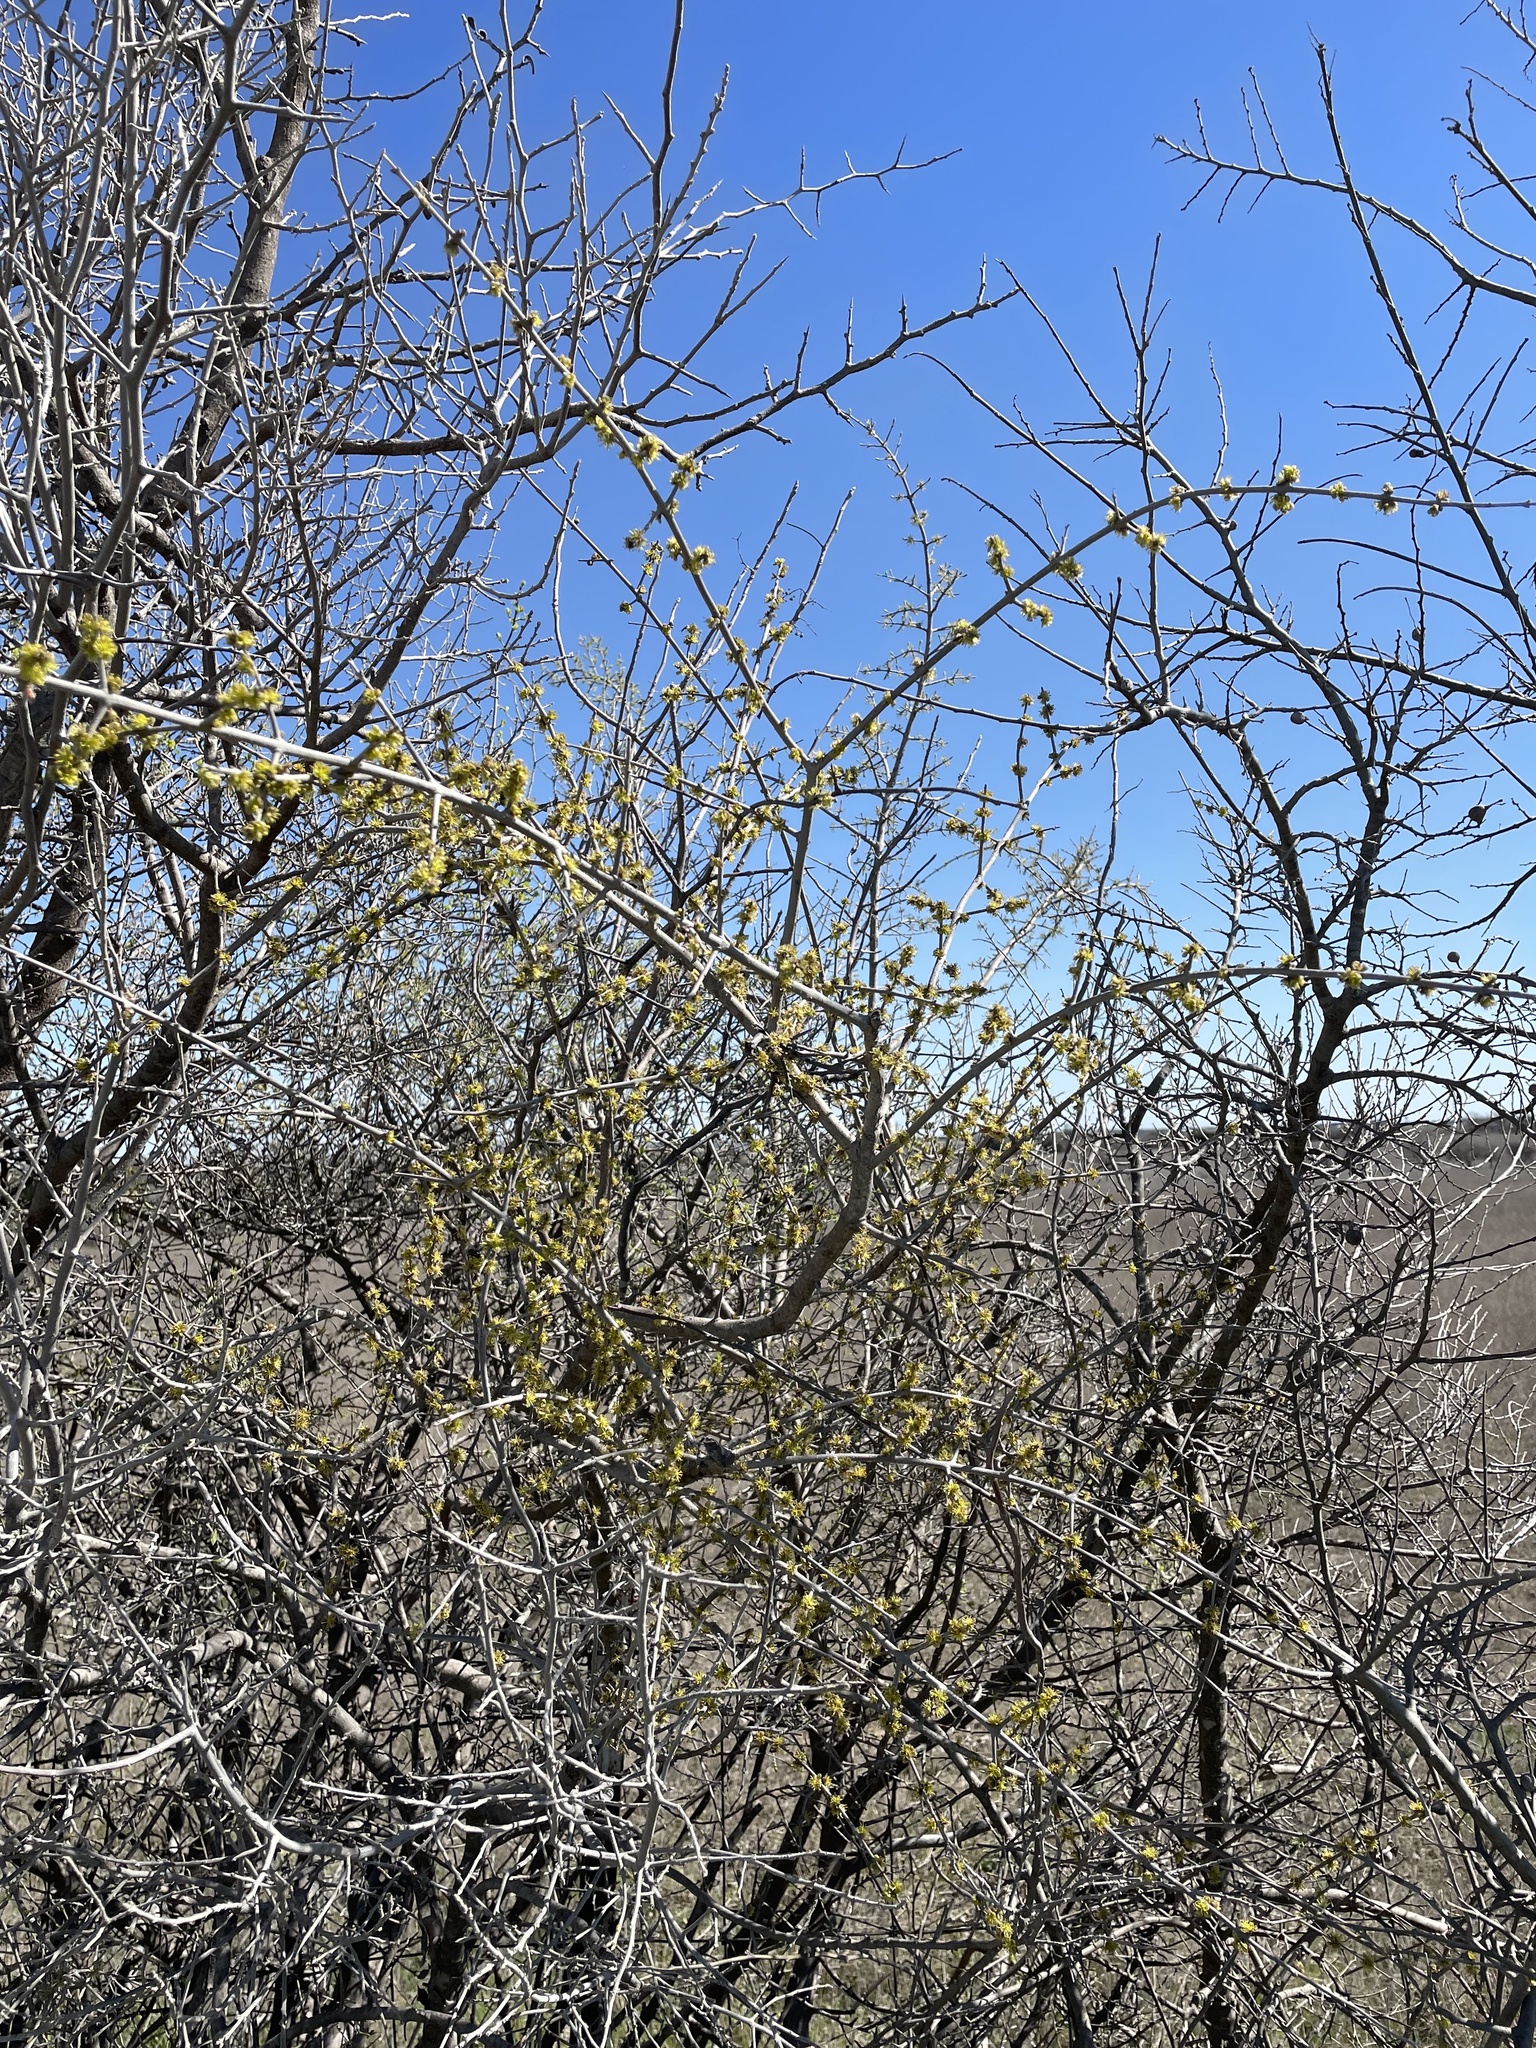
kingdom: Plantae
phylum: Tracheophyta
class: Magnoliopsida
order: Lamiales
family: Oleaceae
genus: Forestiera
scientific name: Forestiera pubescens
